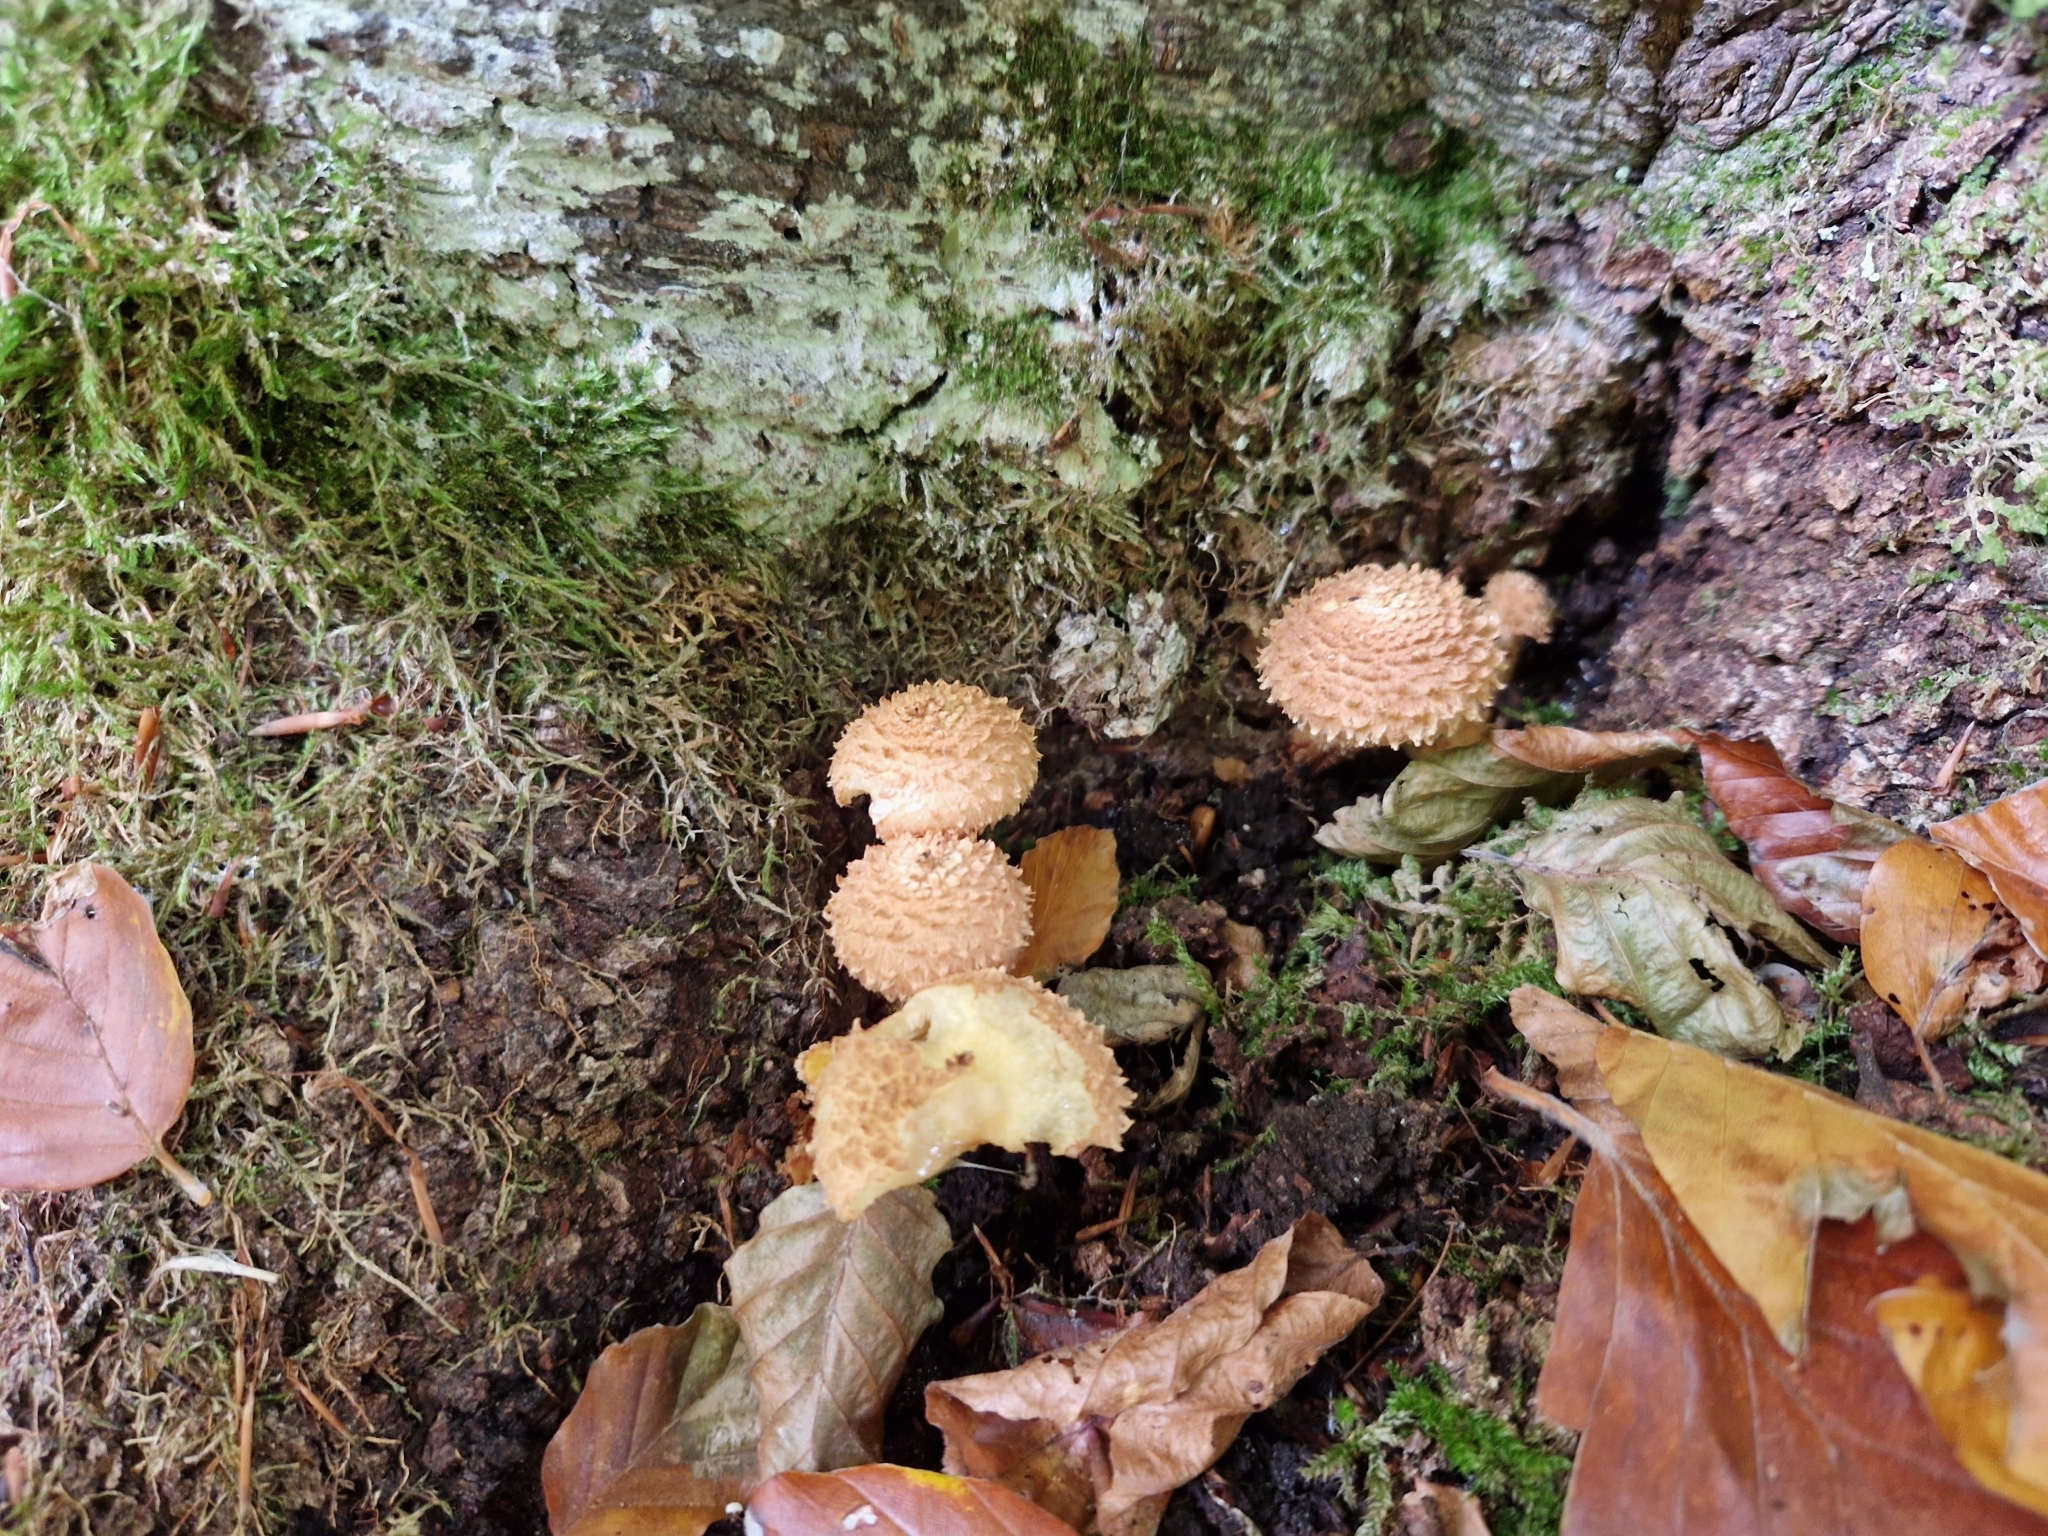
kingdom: Fungi
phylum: Basidiomycota
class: Agaricomycetes
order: Agaricales
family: Strophariaceae
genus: Pholiota
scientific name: Pholiota squarrosa
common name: Shaggy pholiota
